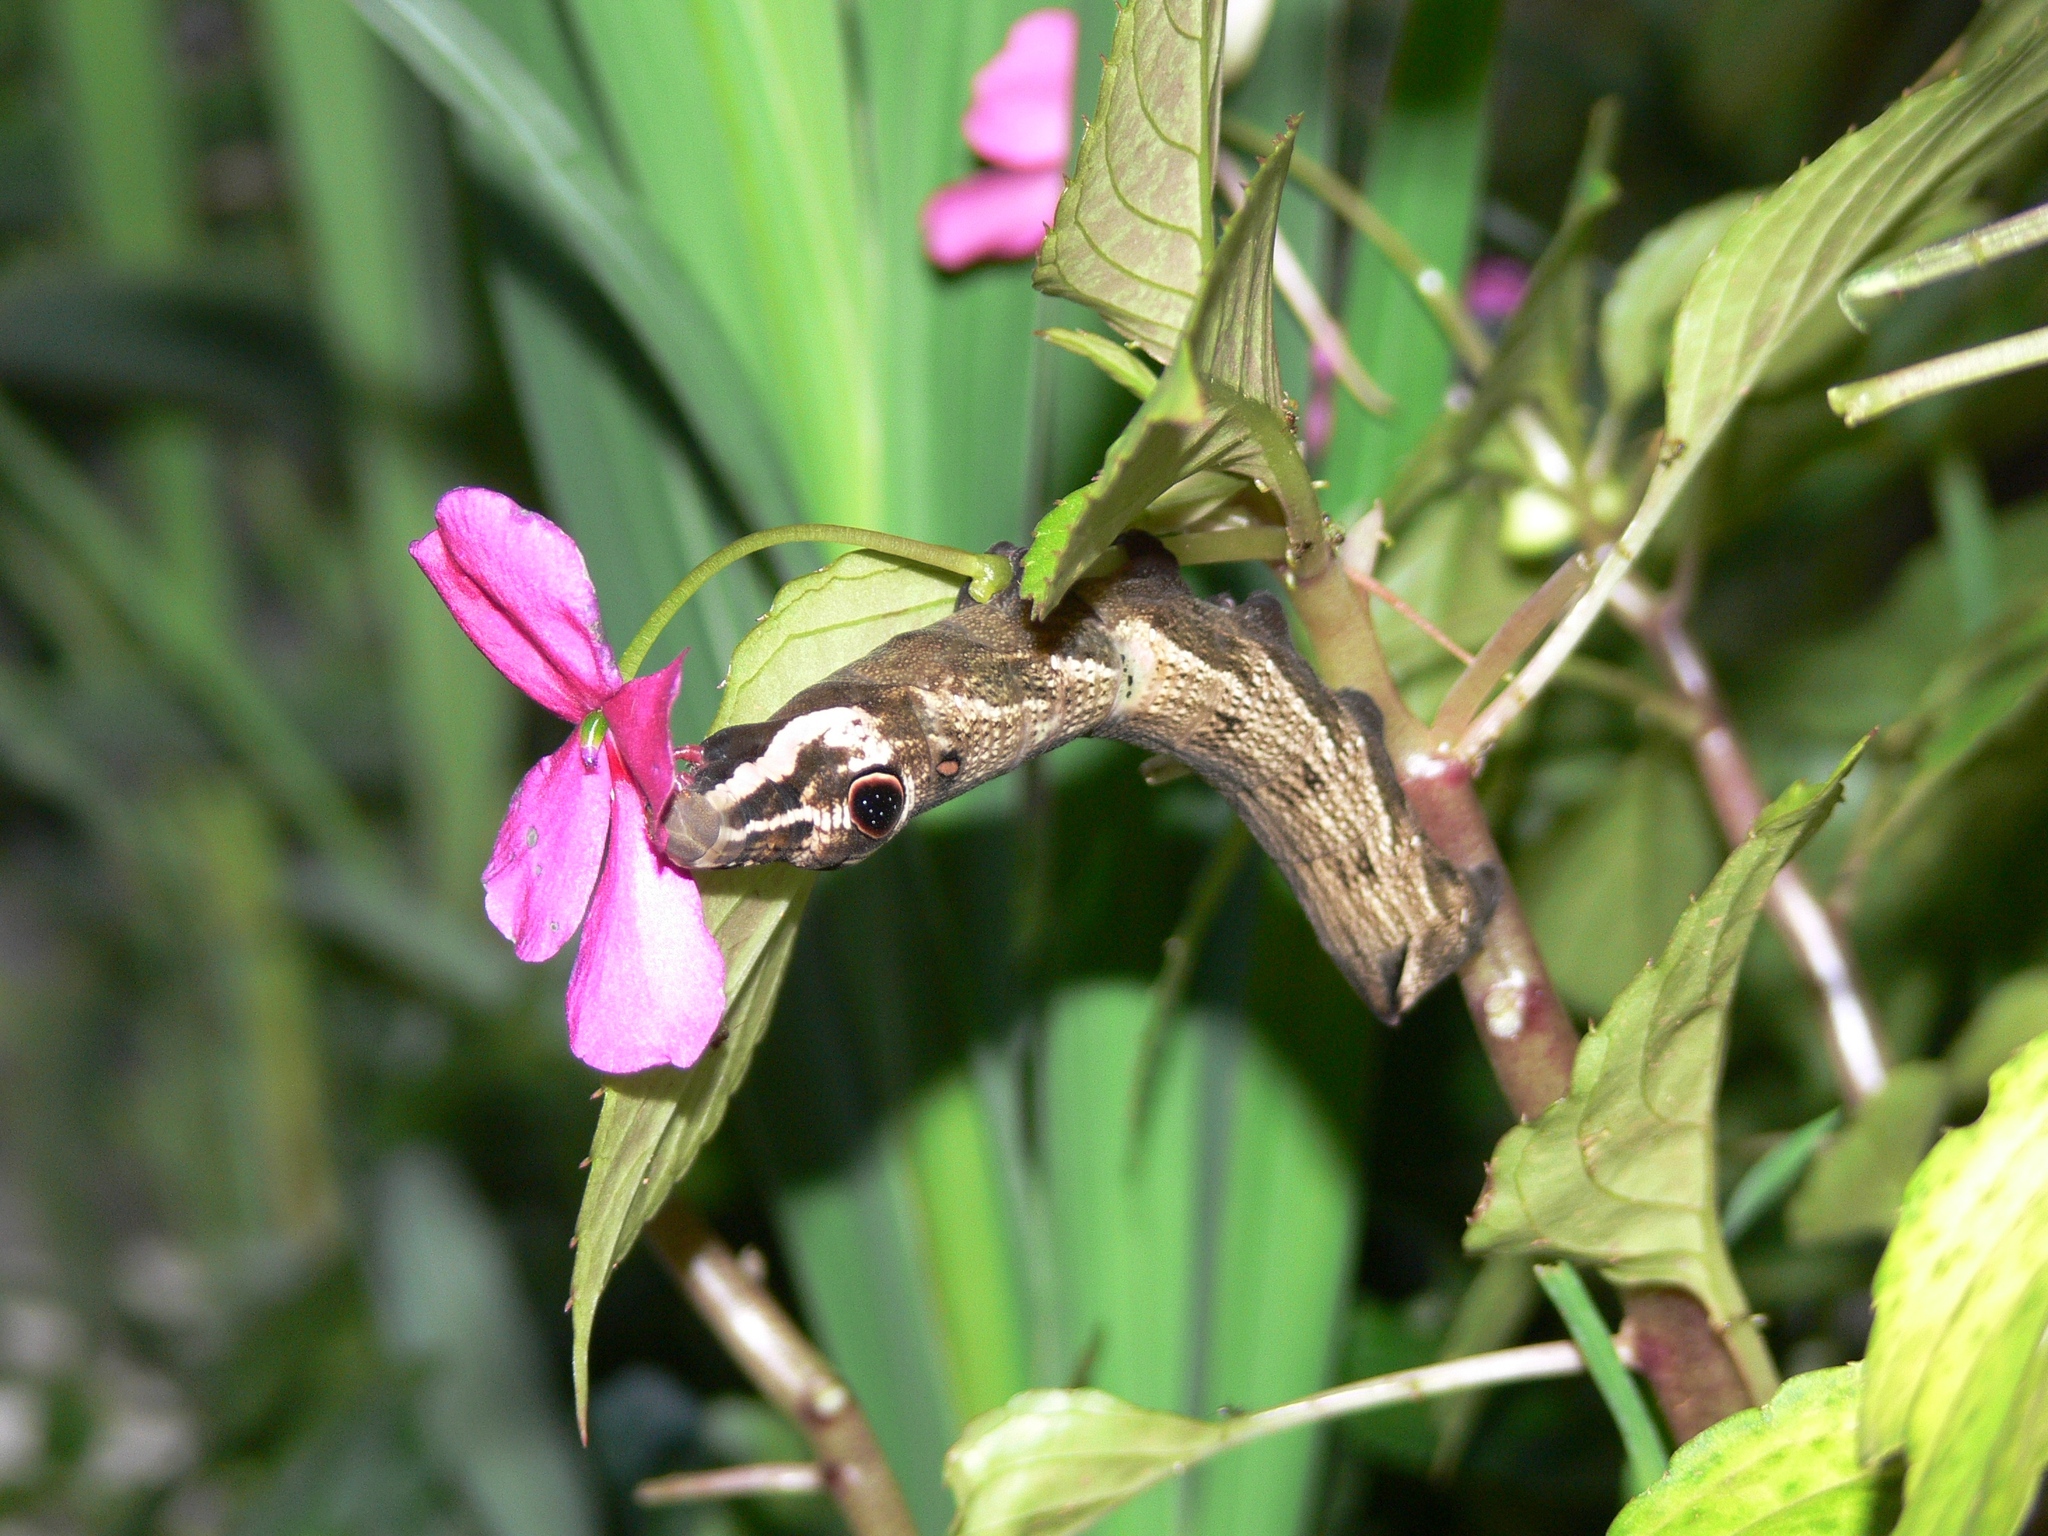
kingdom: Animalia
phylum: Arthropoda
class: Insecta
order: Lepidoptera
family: Sphingidae
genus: Hippotion
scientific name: Hippotion geryon
